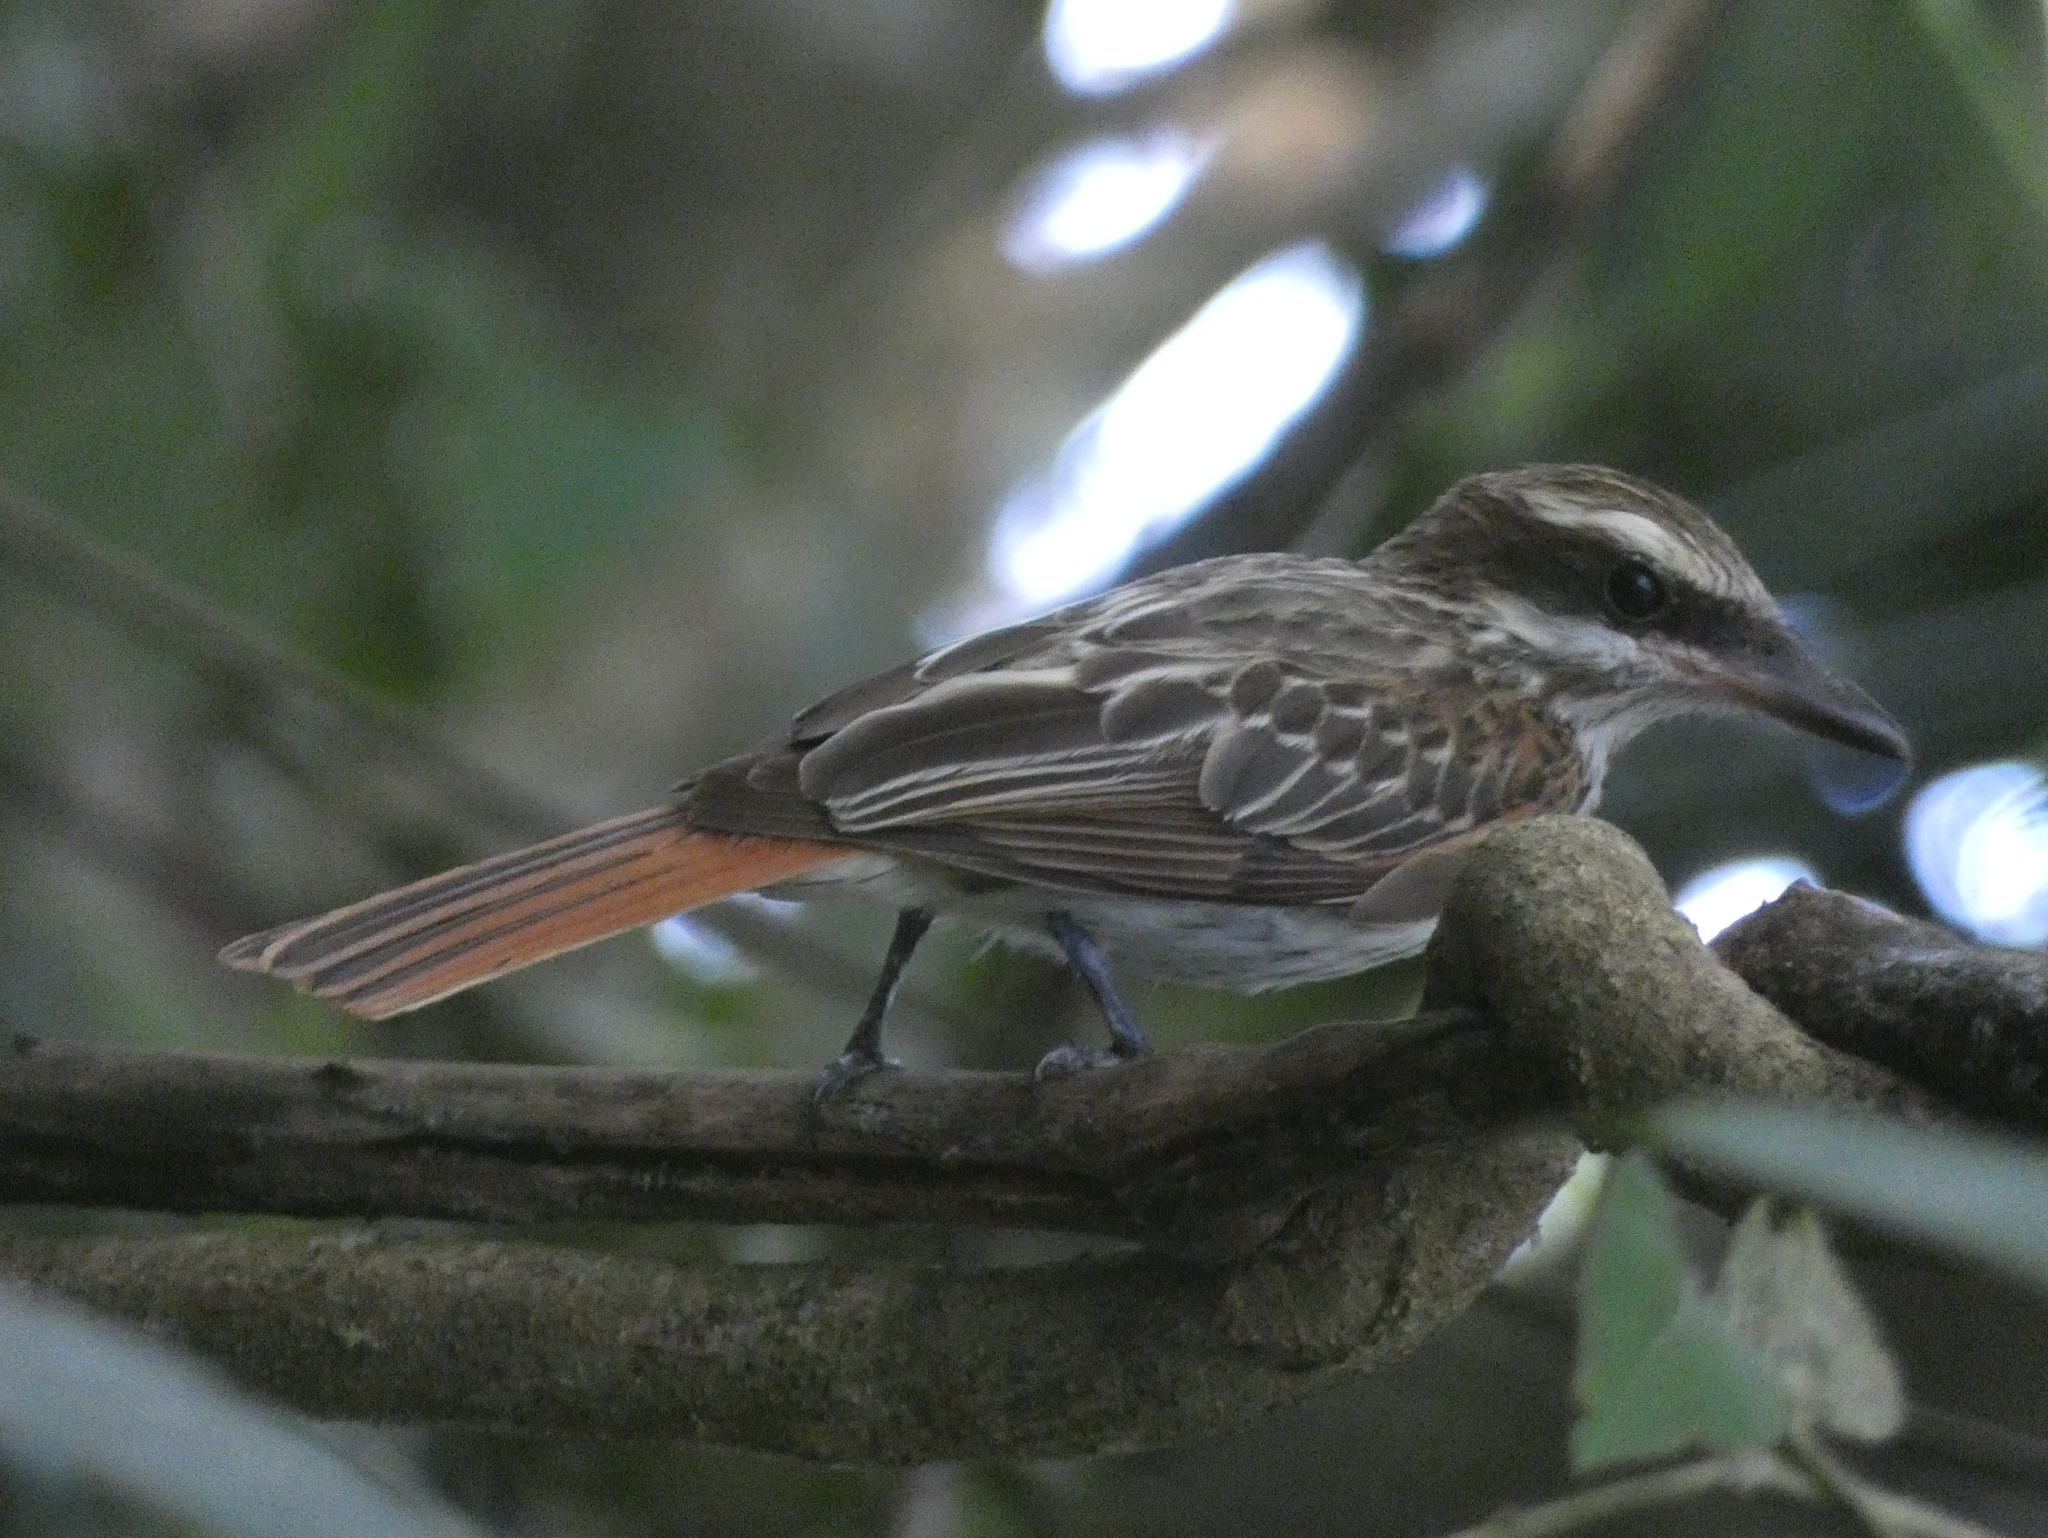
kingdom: Animalia
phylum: Chordata
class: Aves
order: Passeriformes
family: Tyrannidae
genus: Myiodynastes
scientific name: Myiodynastes maculatus
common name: Streaked flycatcher
